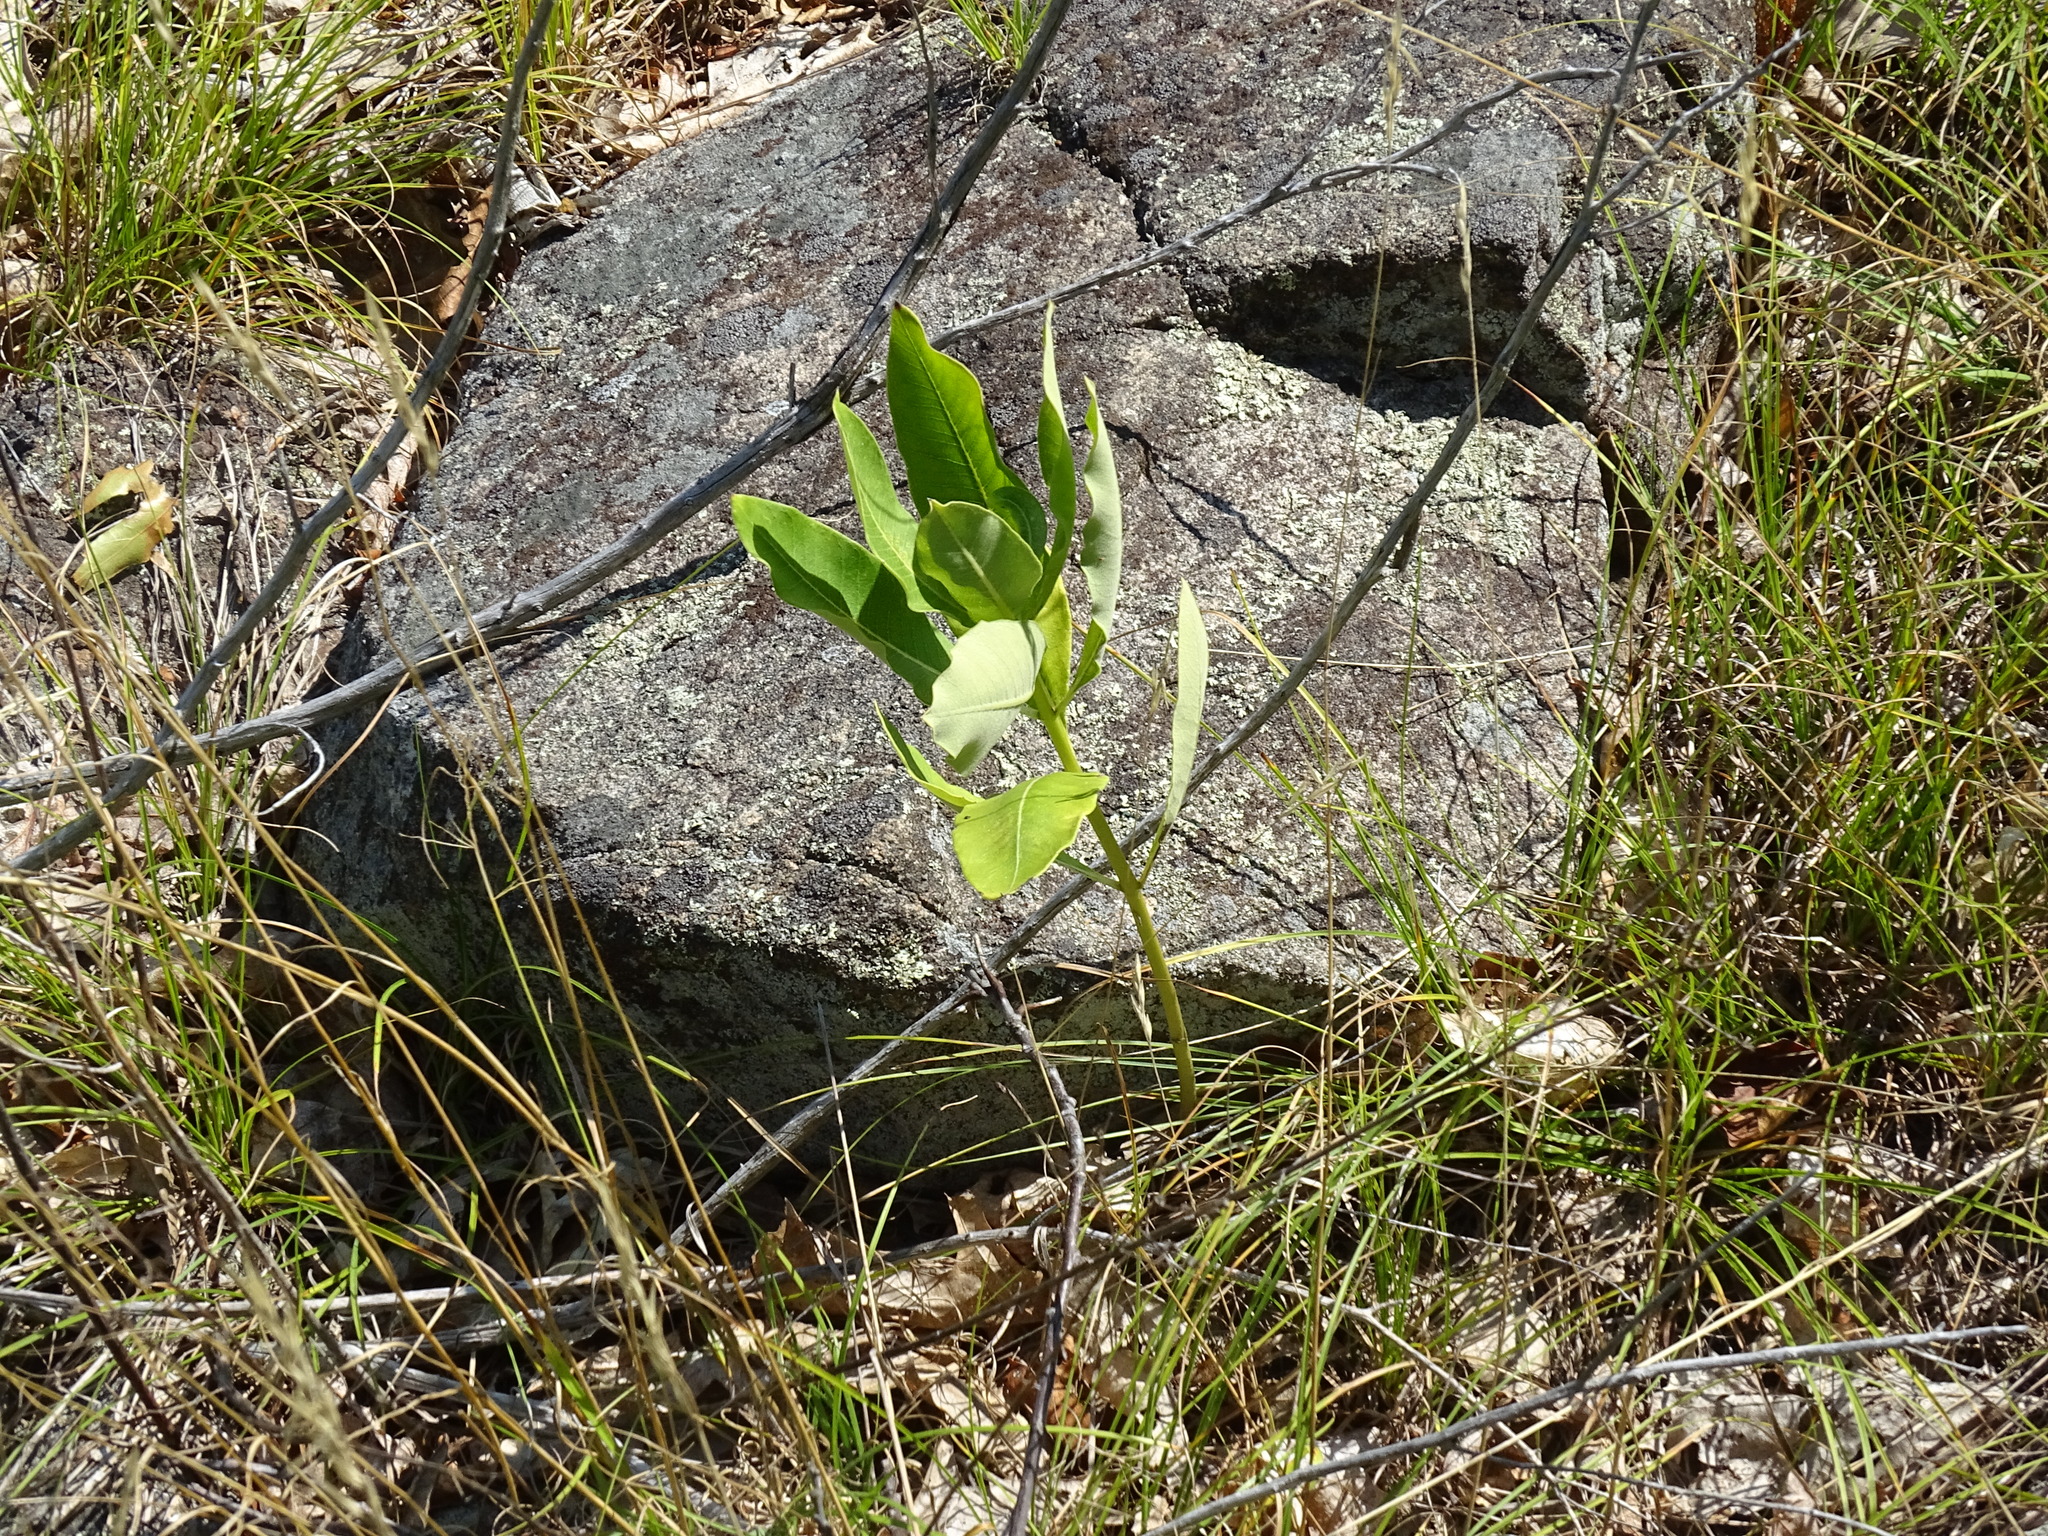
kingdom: Plantae
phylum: Tracheophyta
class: Magnoliopsida
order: Gentianales
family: Apocynaceae
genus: Asclepias
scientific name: Asclepias syriaca
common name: Common milkweed
